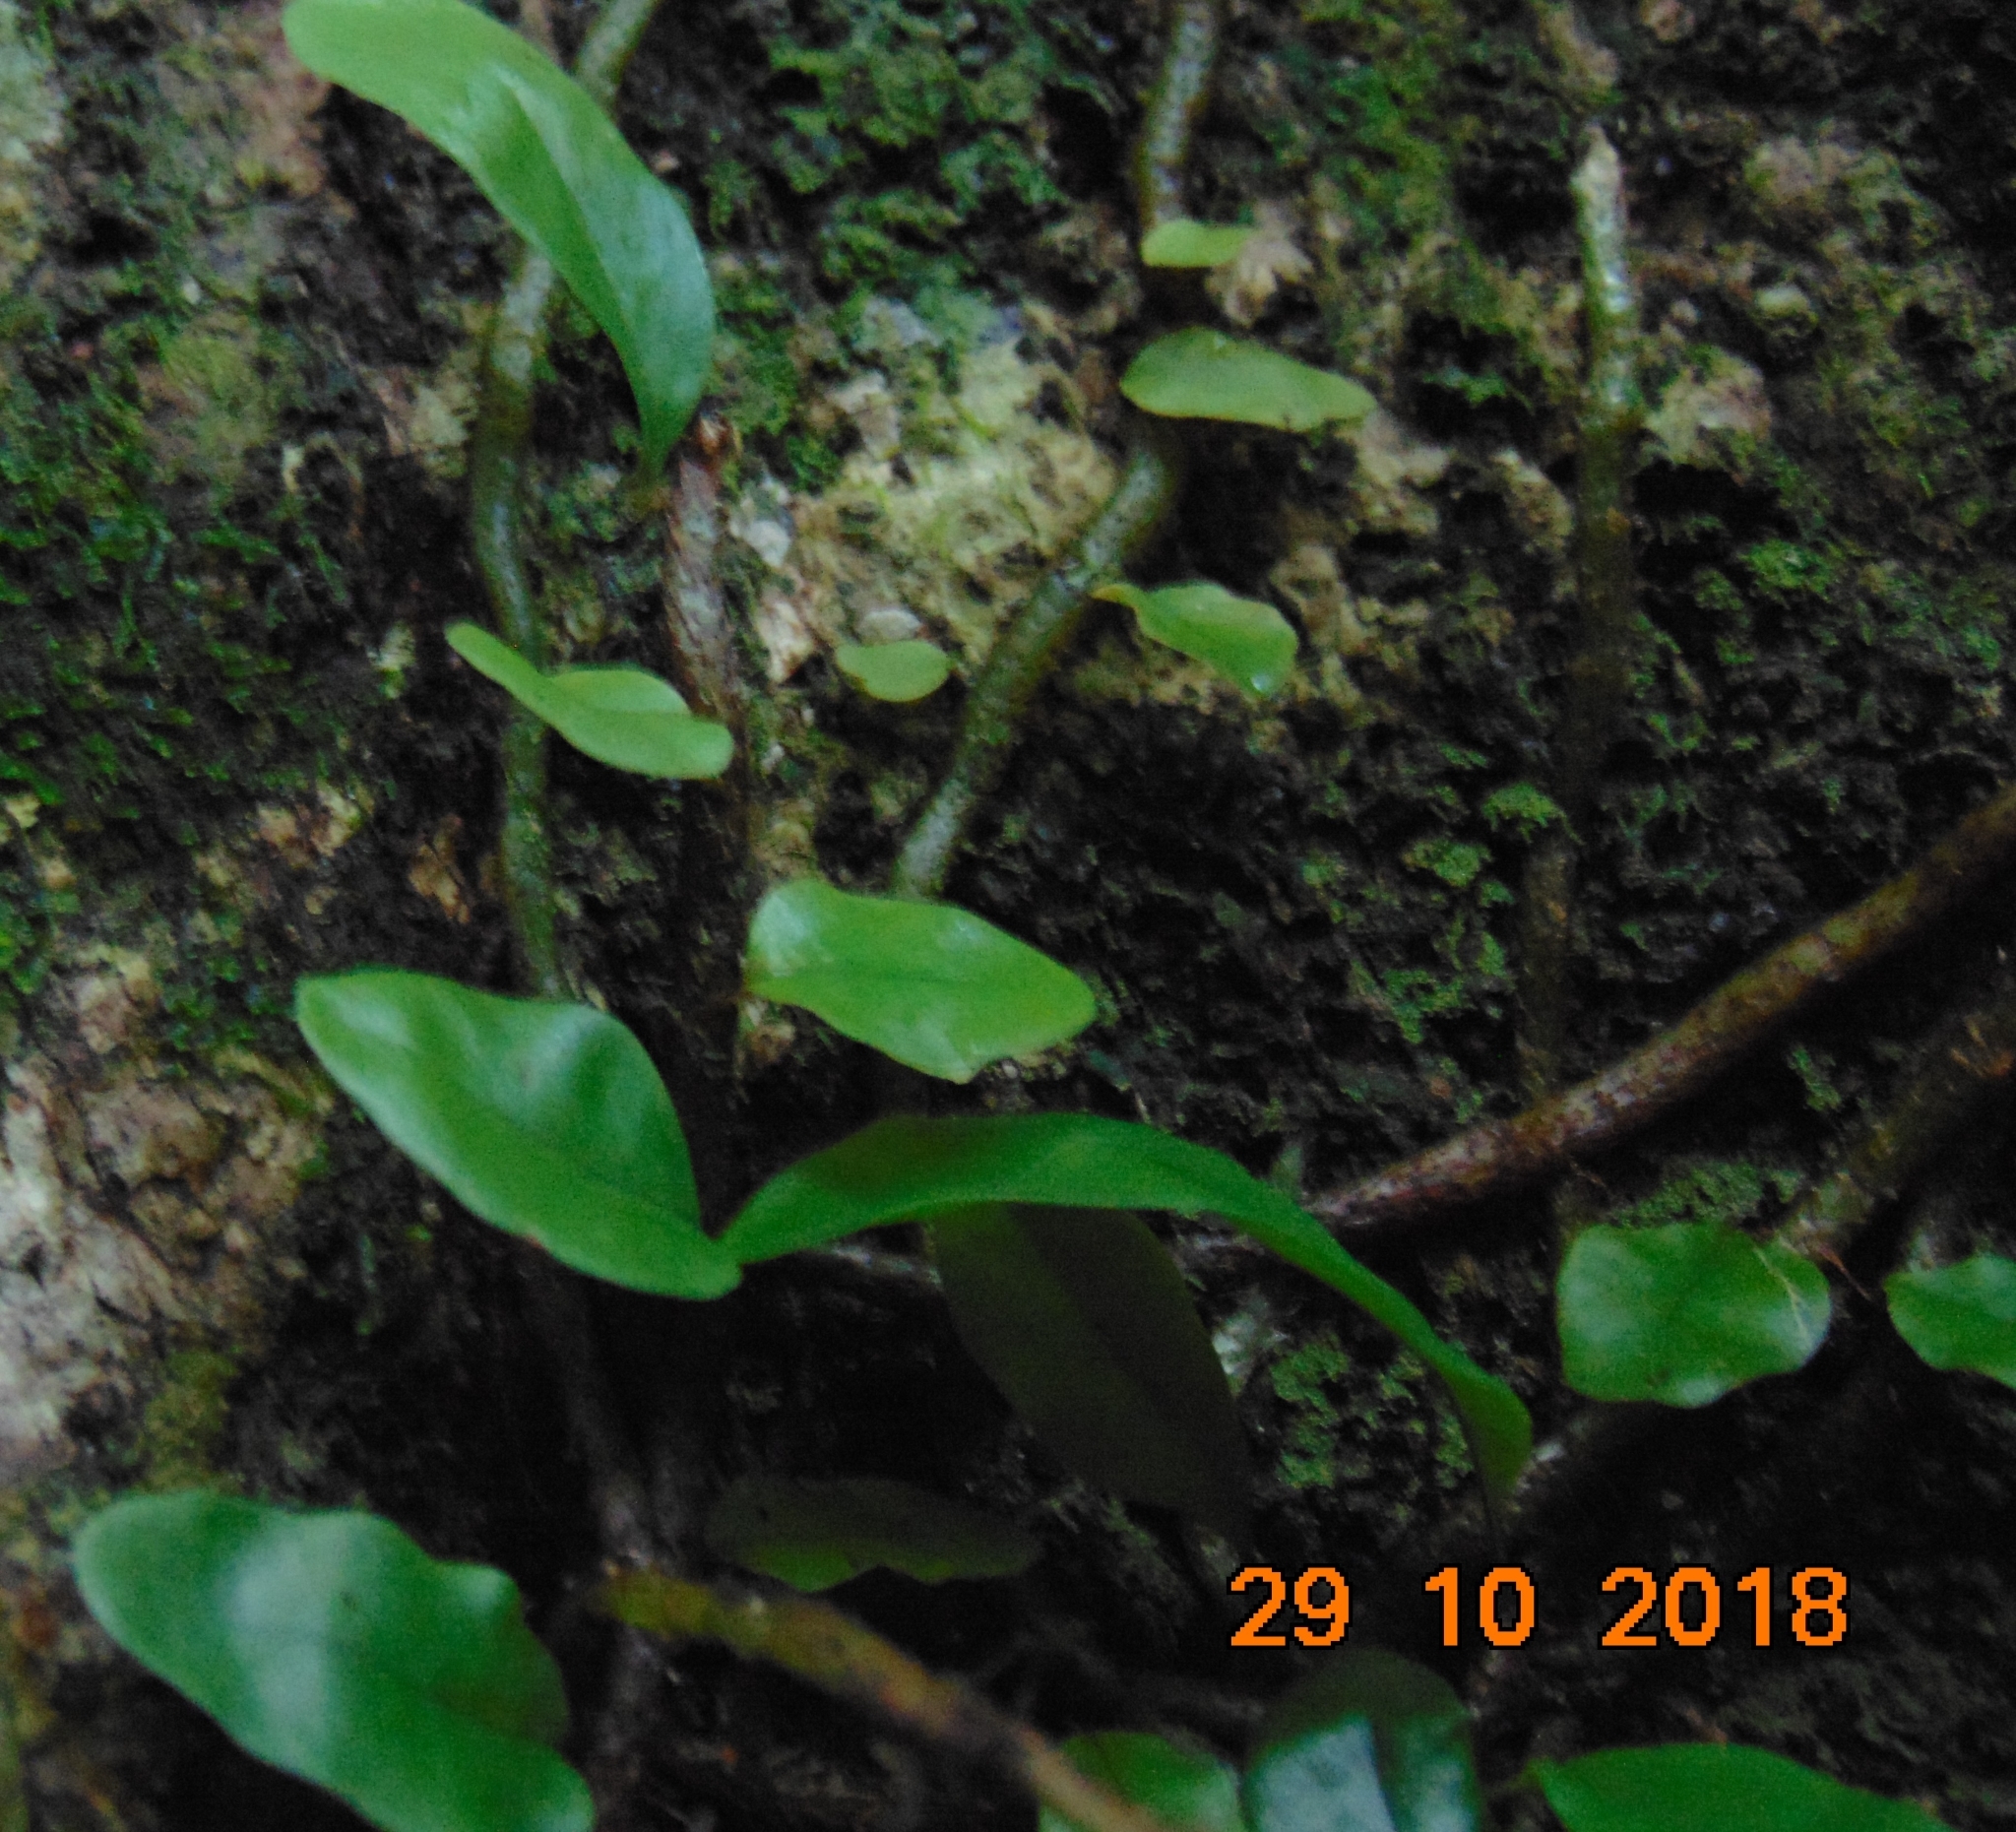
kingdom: Plantae
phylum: Tracheophyta
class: Polypodiopsida
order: Polypodiales
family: Polypodiaceae
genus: Microgramma
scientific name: Microgramma nitida
